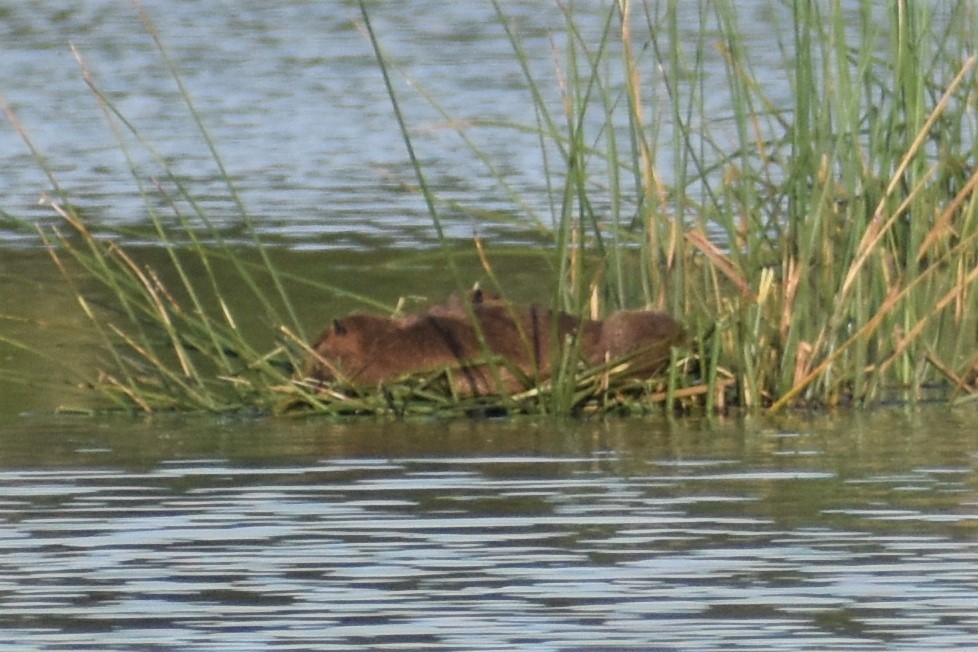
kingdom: Animalia
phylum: Chordata
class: Mammalia
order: Rodentia
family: Myocastoridae
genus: Myocastor
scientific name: Myocastor coypus
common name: Coypu
